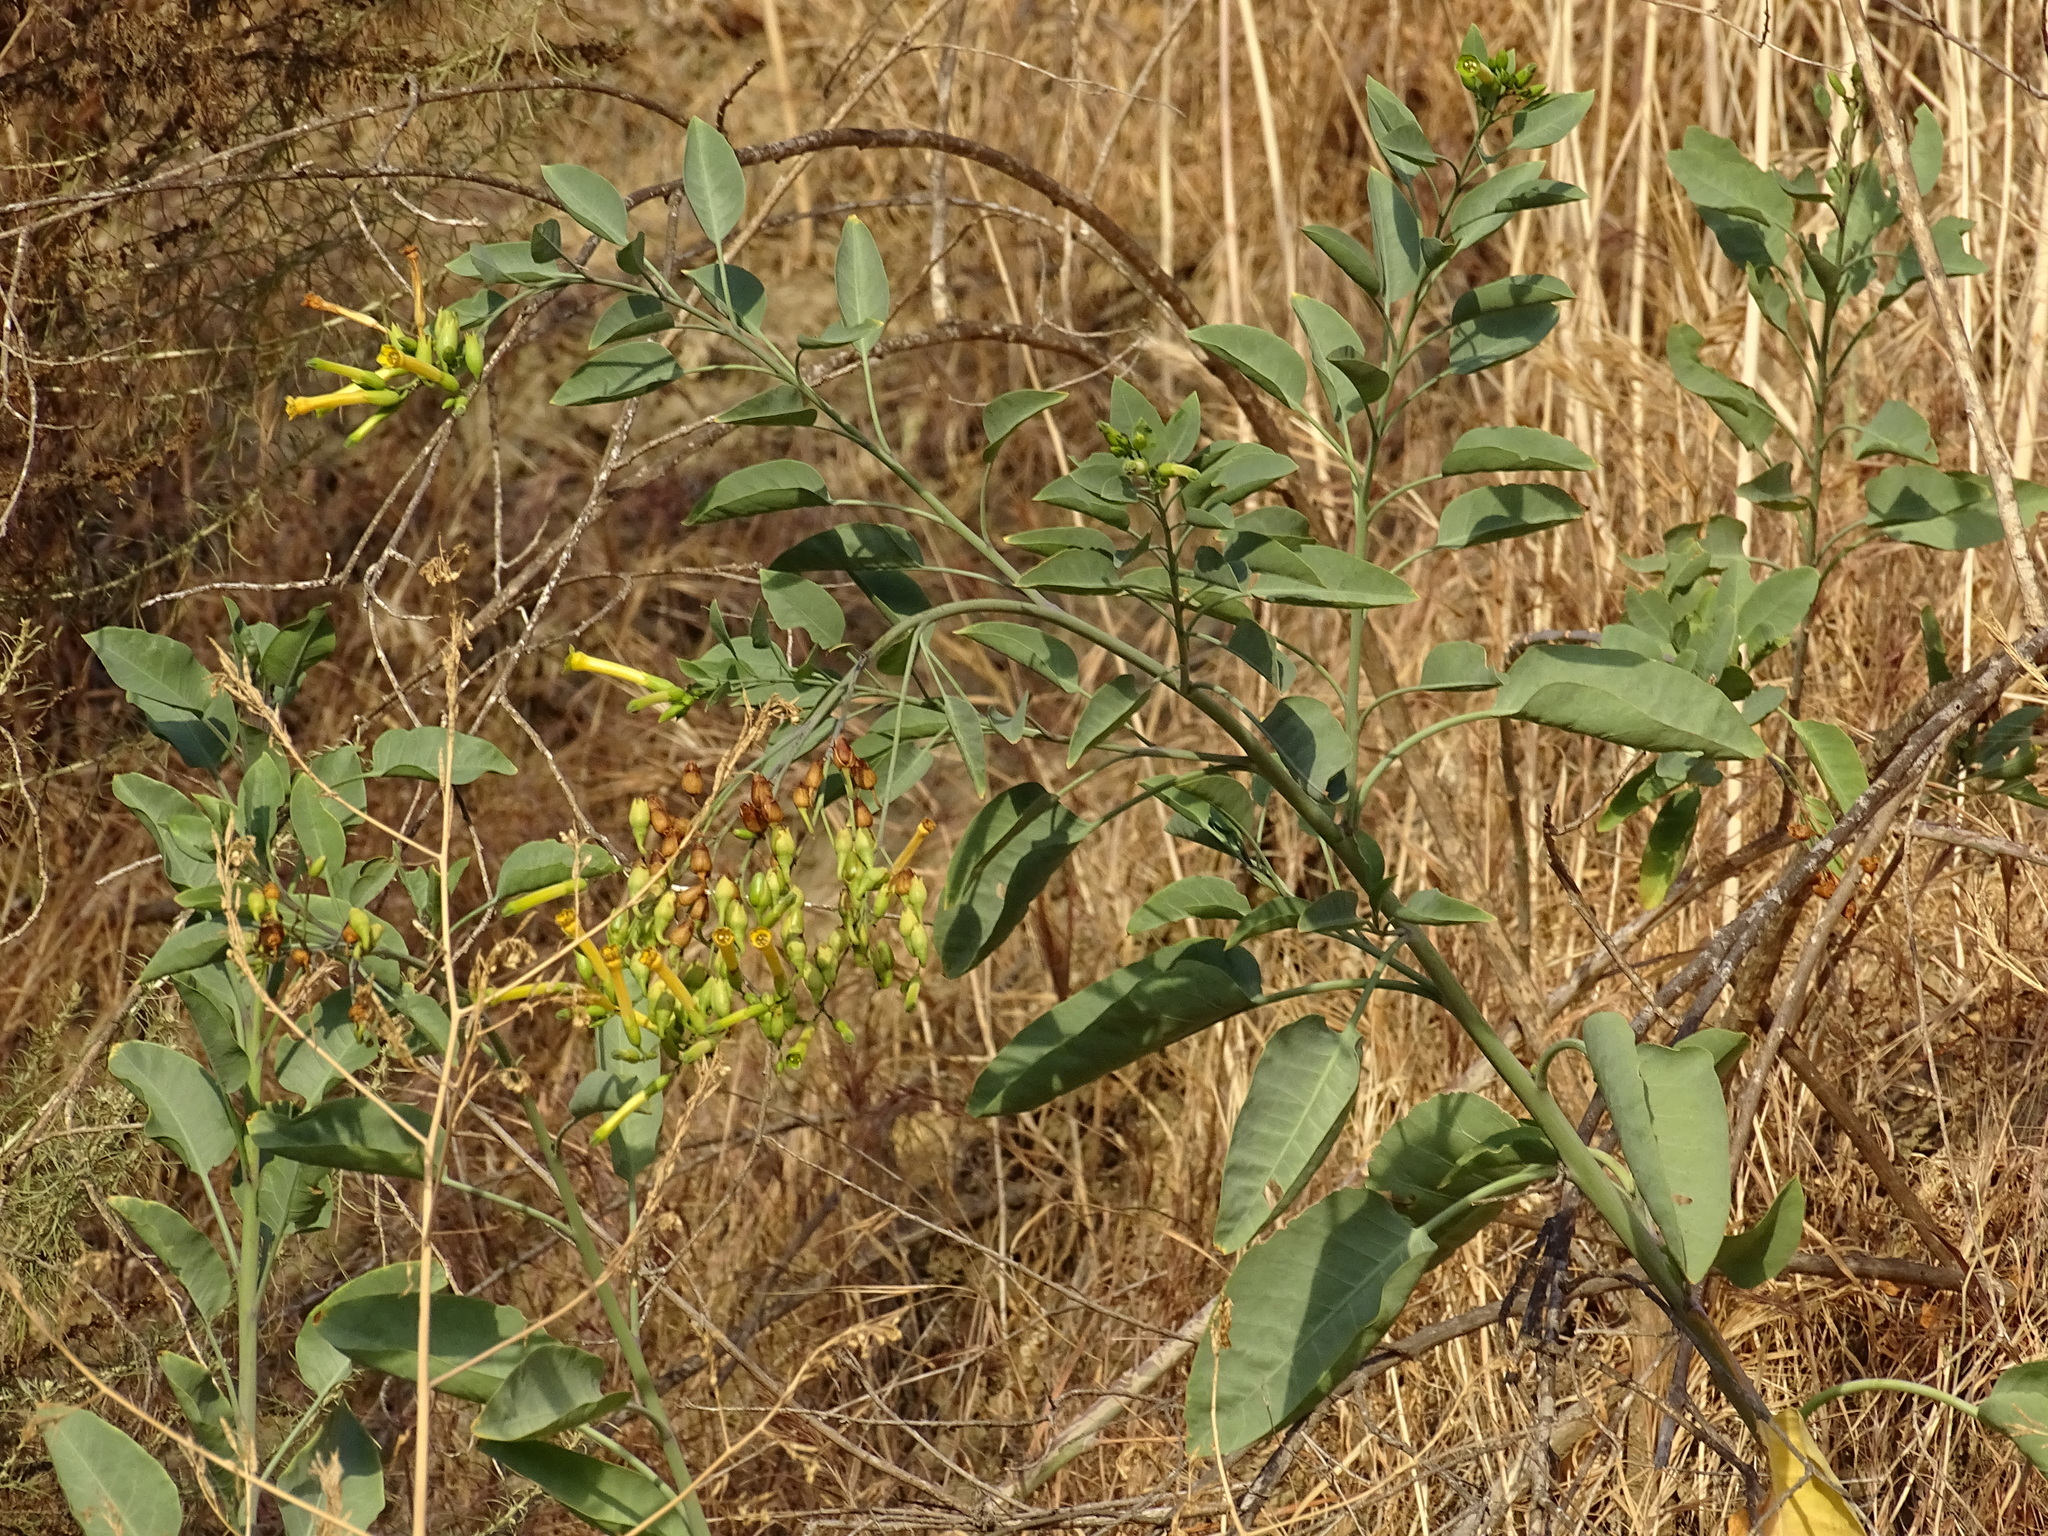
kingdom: Plantae
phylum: Tracheophyta
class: Magnoliopsida
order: Solanales
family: Solanaceae
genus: Nicotiana
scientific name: Nicotiana glauca
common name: Tree tobacco
